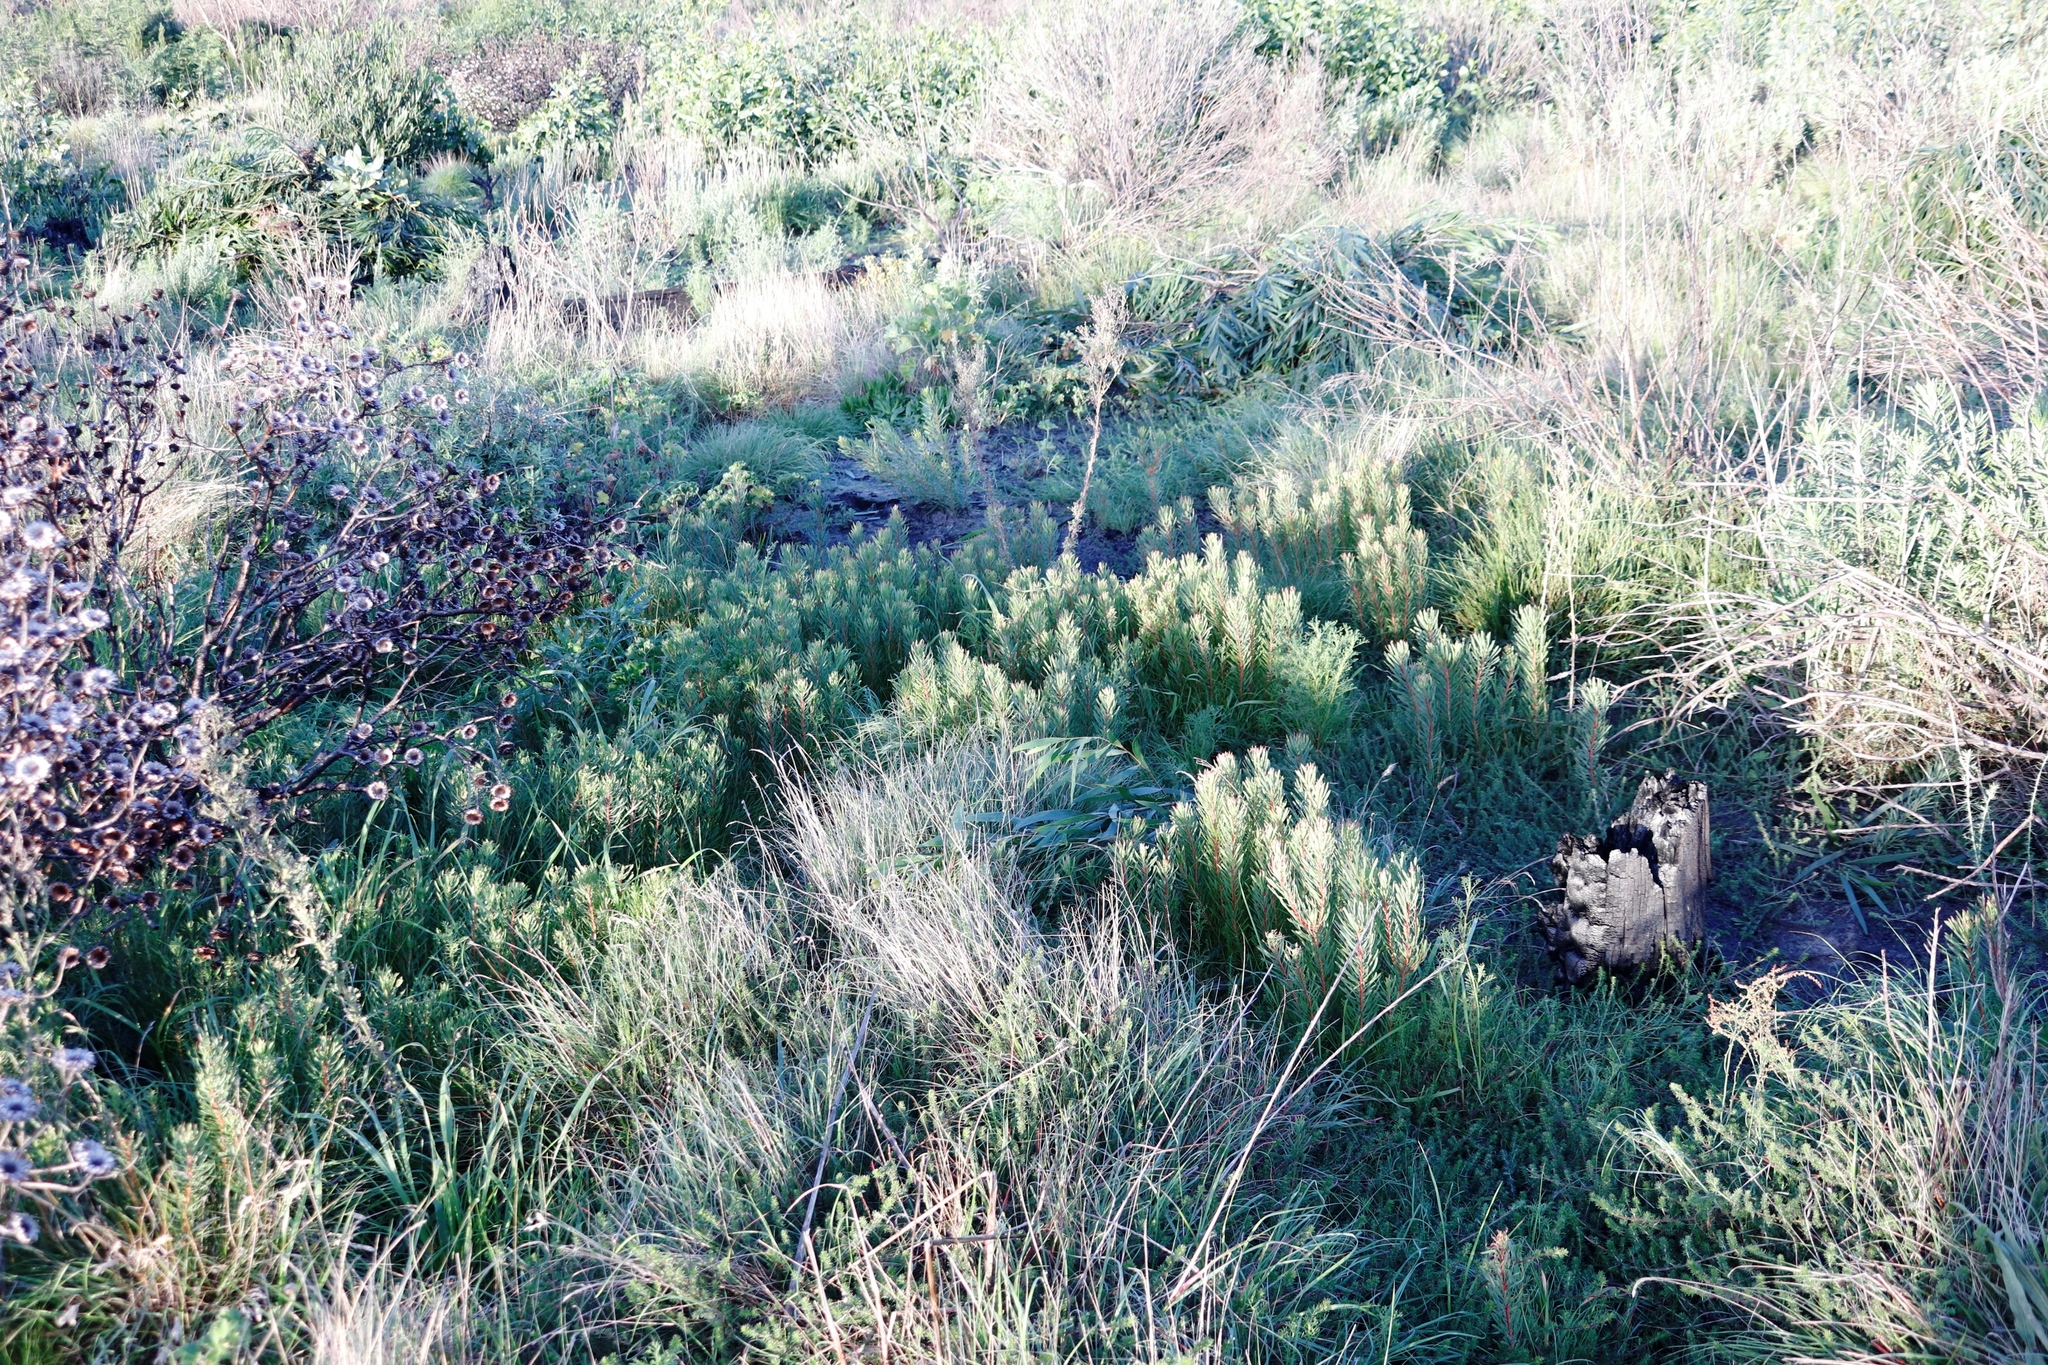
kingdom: Plantae
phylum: Tracheophyta
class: Magnoliopsida
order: Proteales
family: Proteaceae
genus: Protea
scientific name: Protea scolymocephala
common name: Thistle sugarbush
